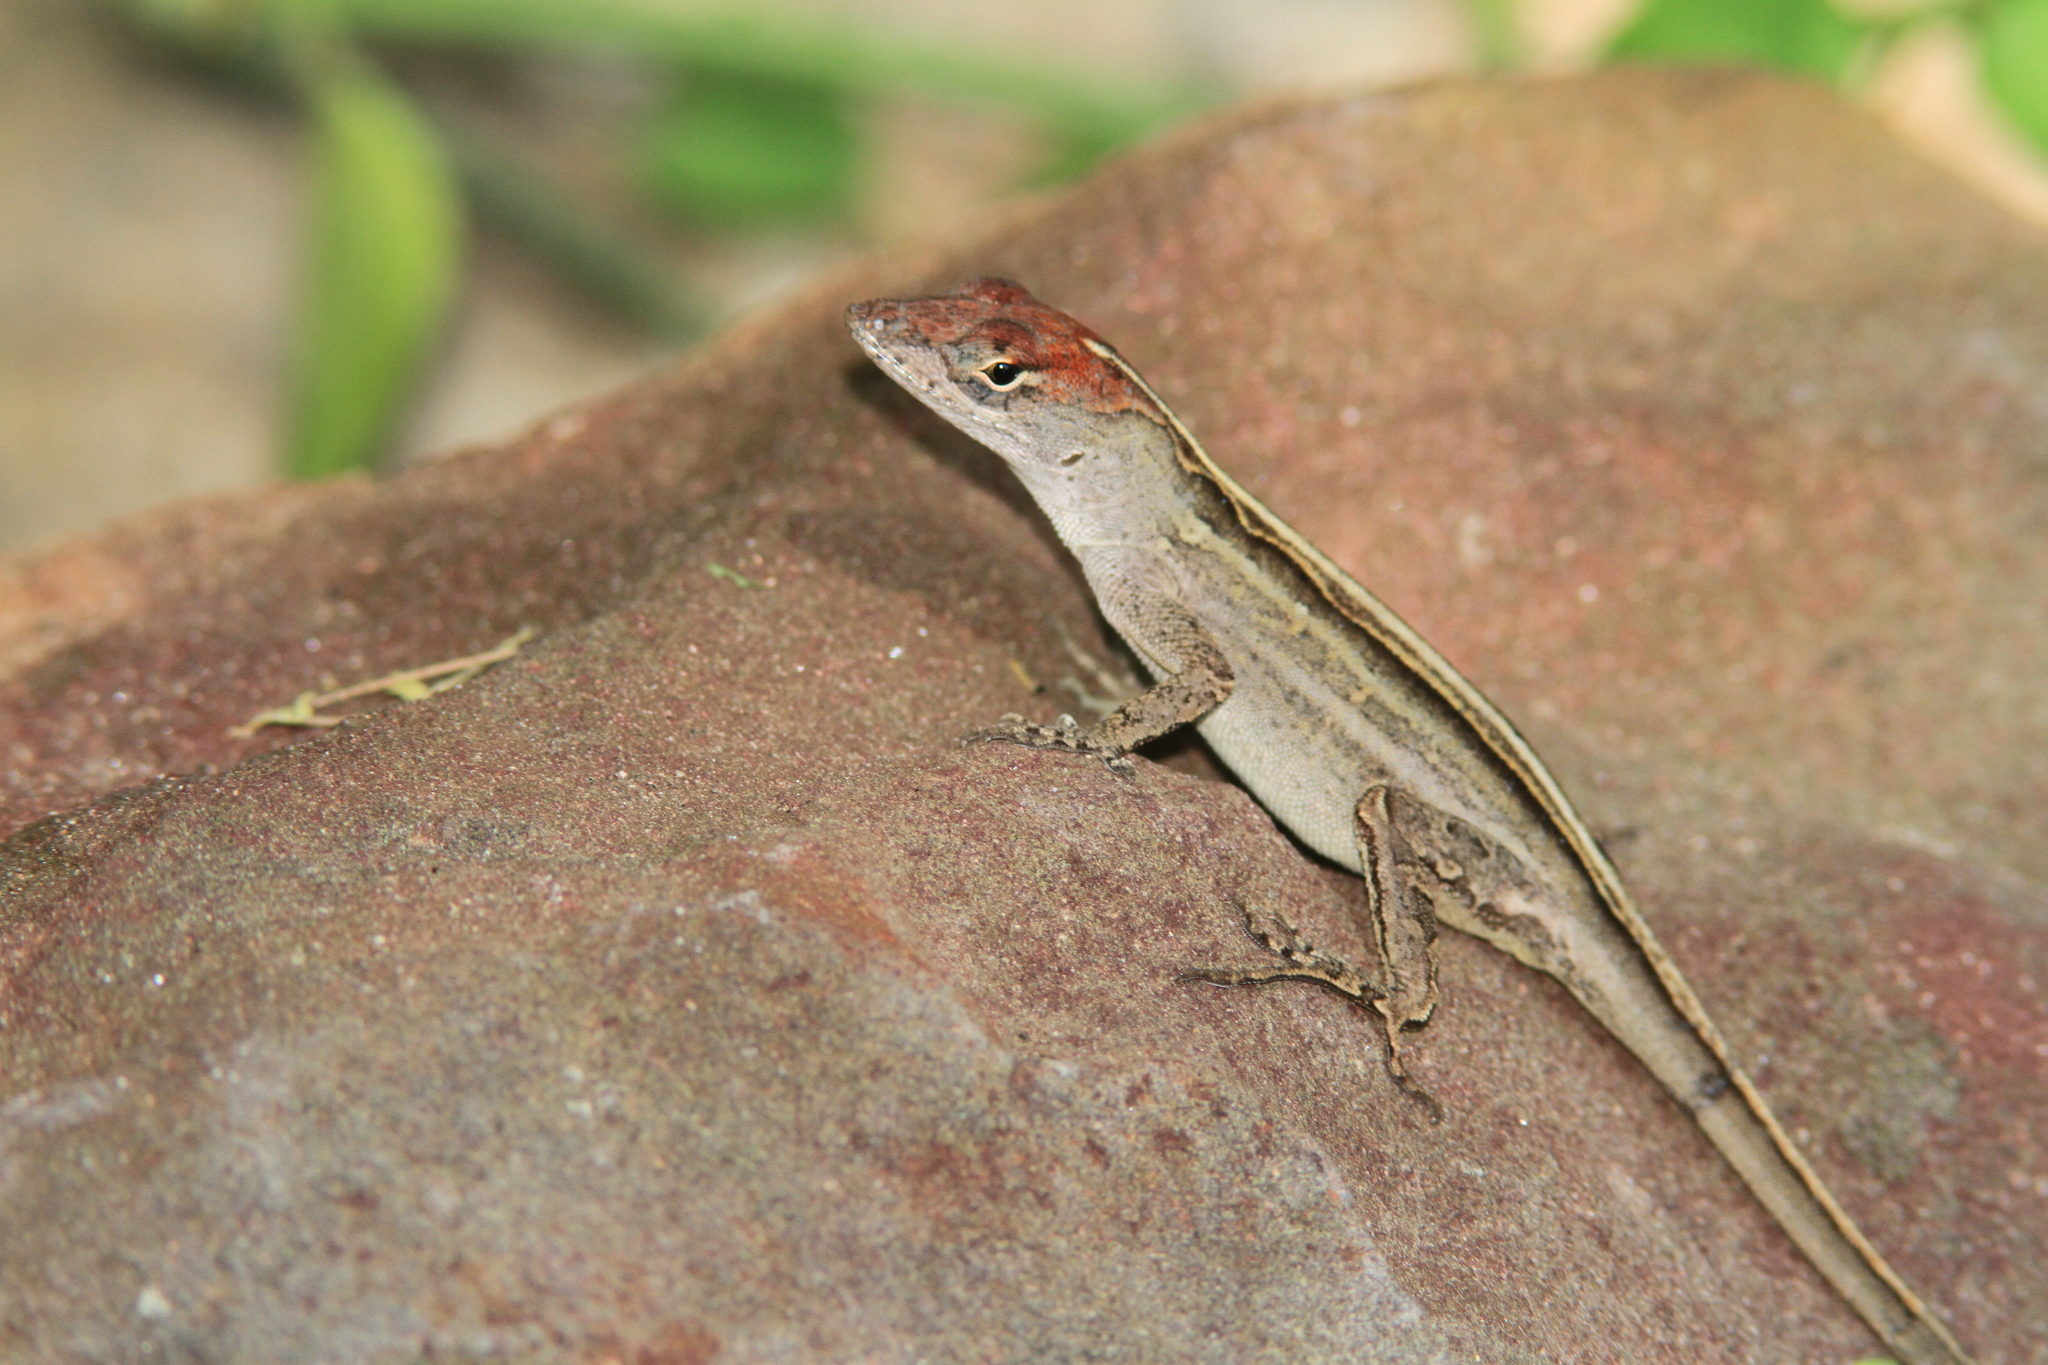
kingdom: Animalia
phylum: Chordata
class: Squamata
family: Dactyloidae
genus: Anolis
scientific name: Anolis sagrei
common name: Brown anole
